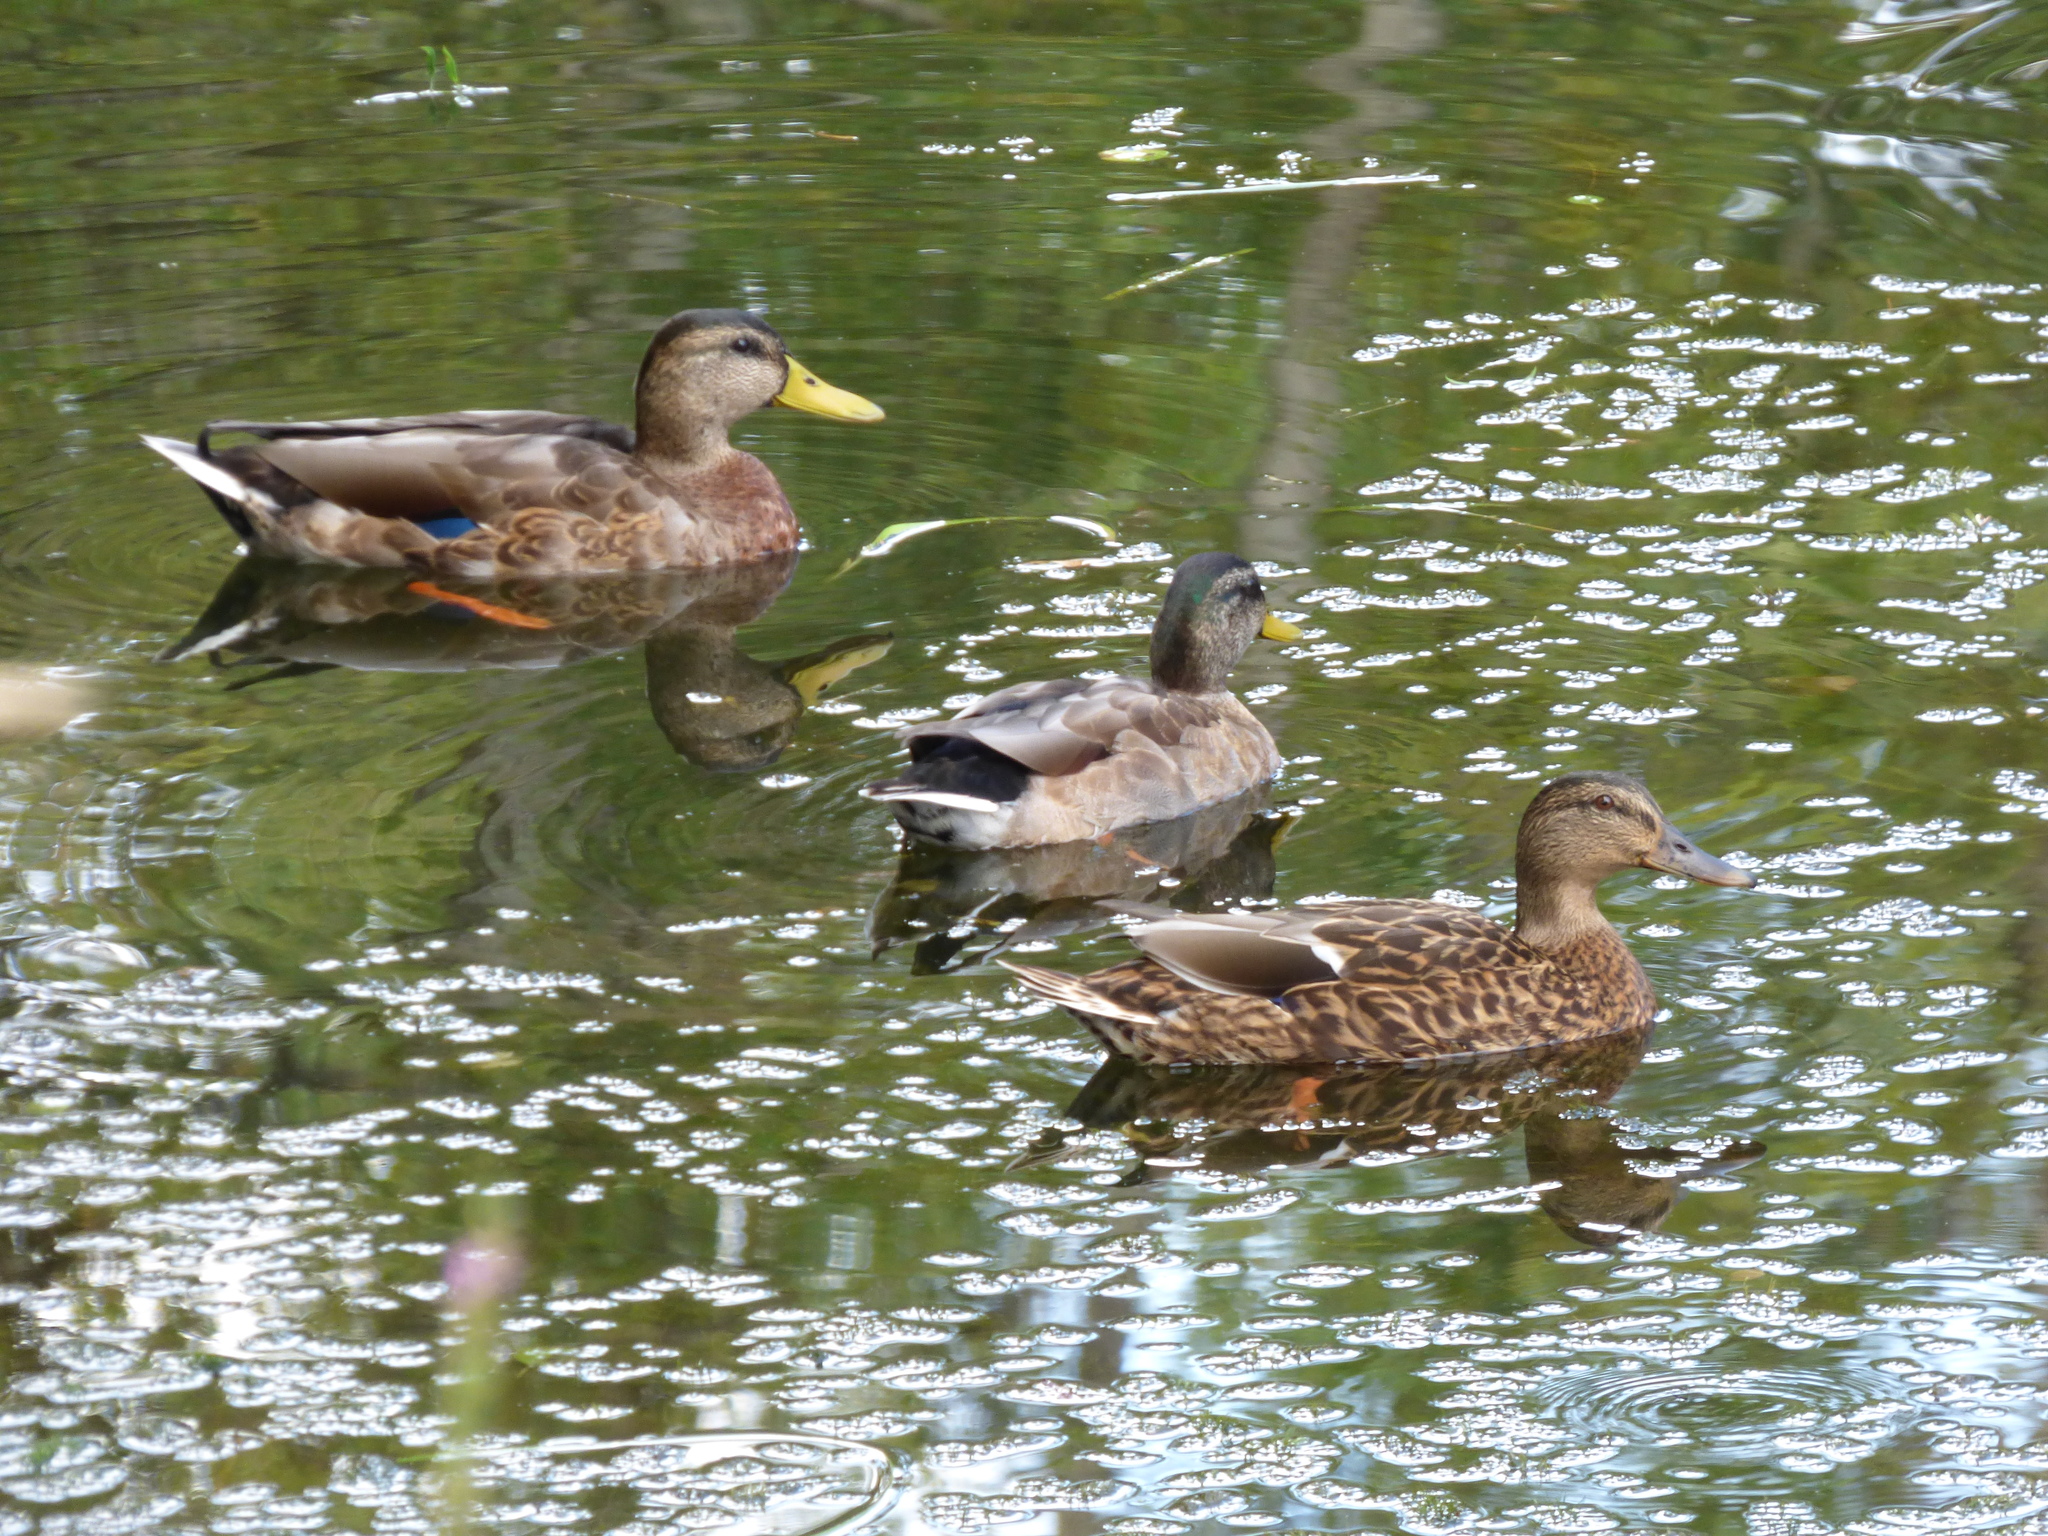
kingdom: Animalia
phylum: Chordata
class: Aves
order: Anseriformes
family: Anatidae
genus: Anas
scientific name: Anas platyrhynchos
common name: Mallard
